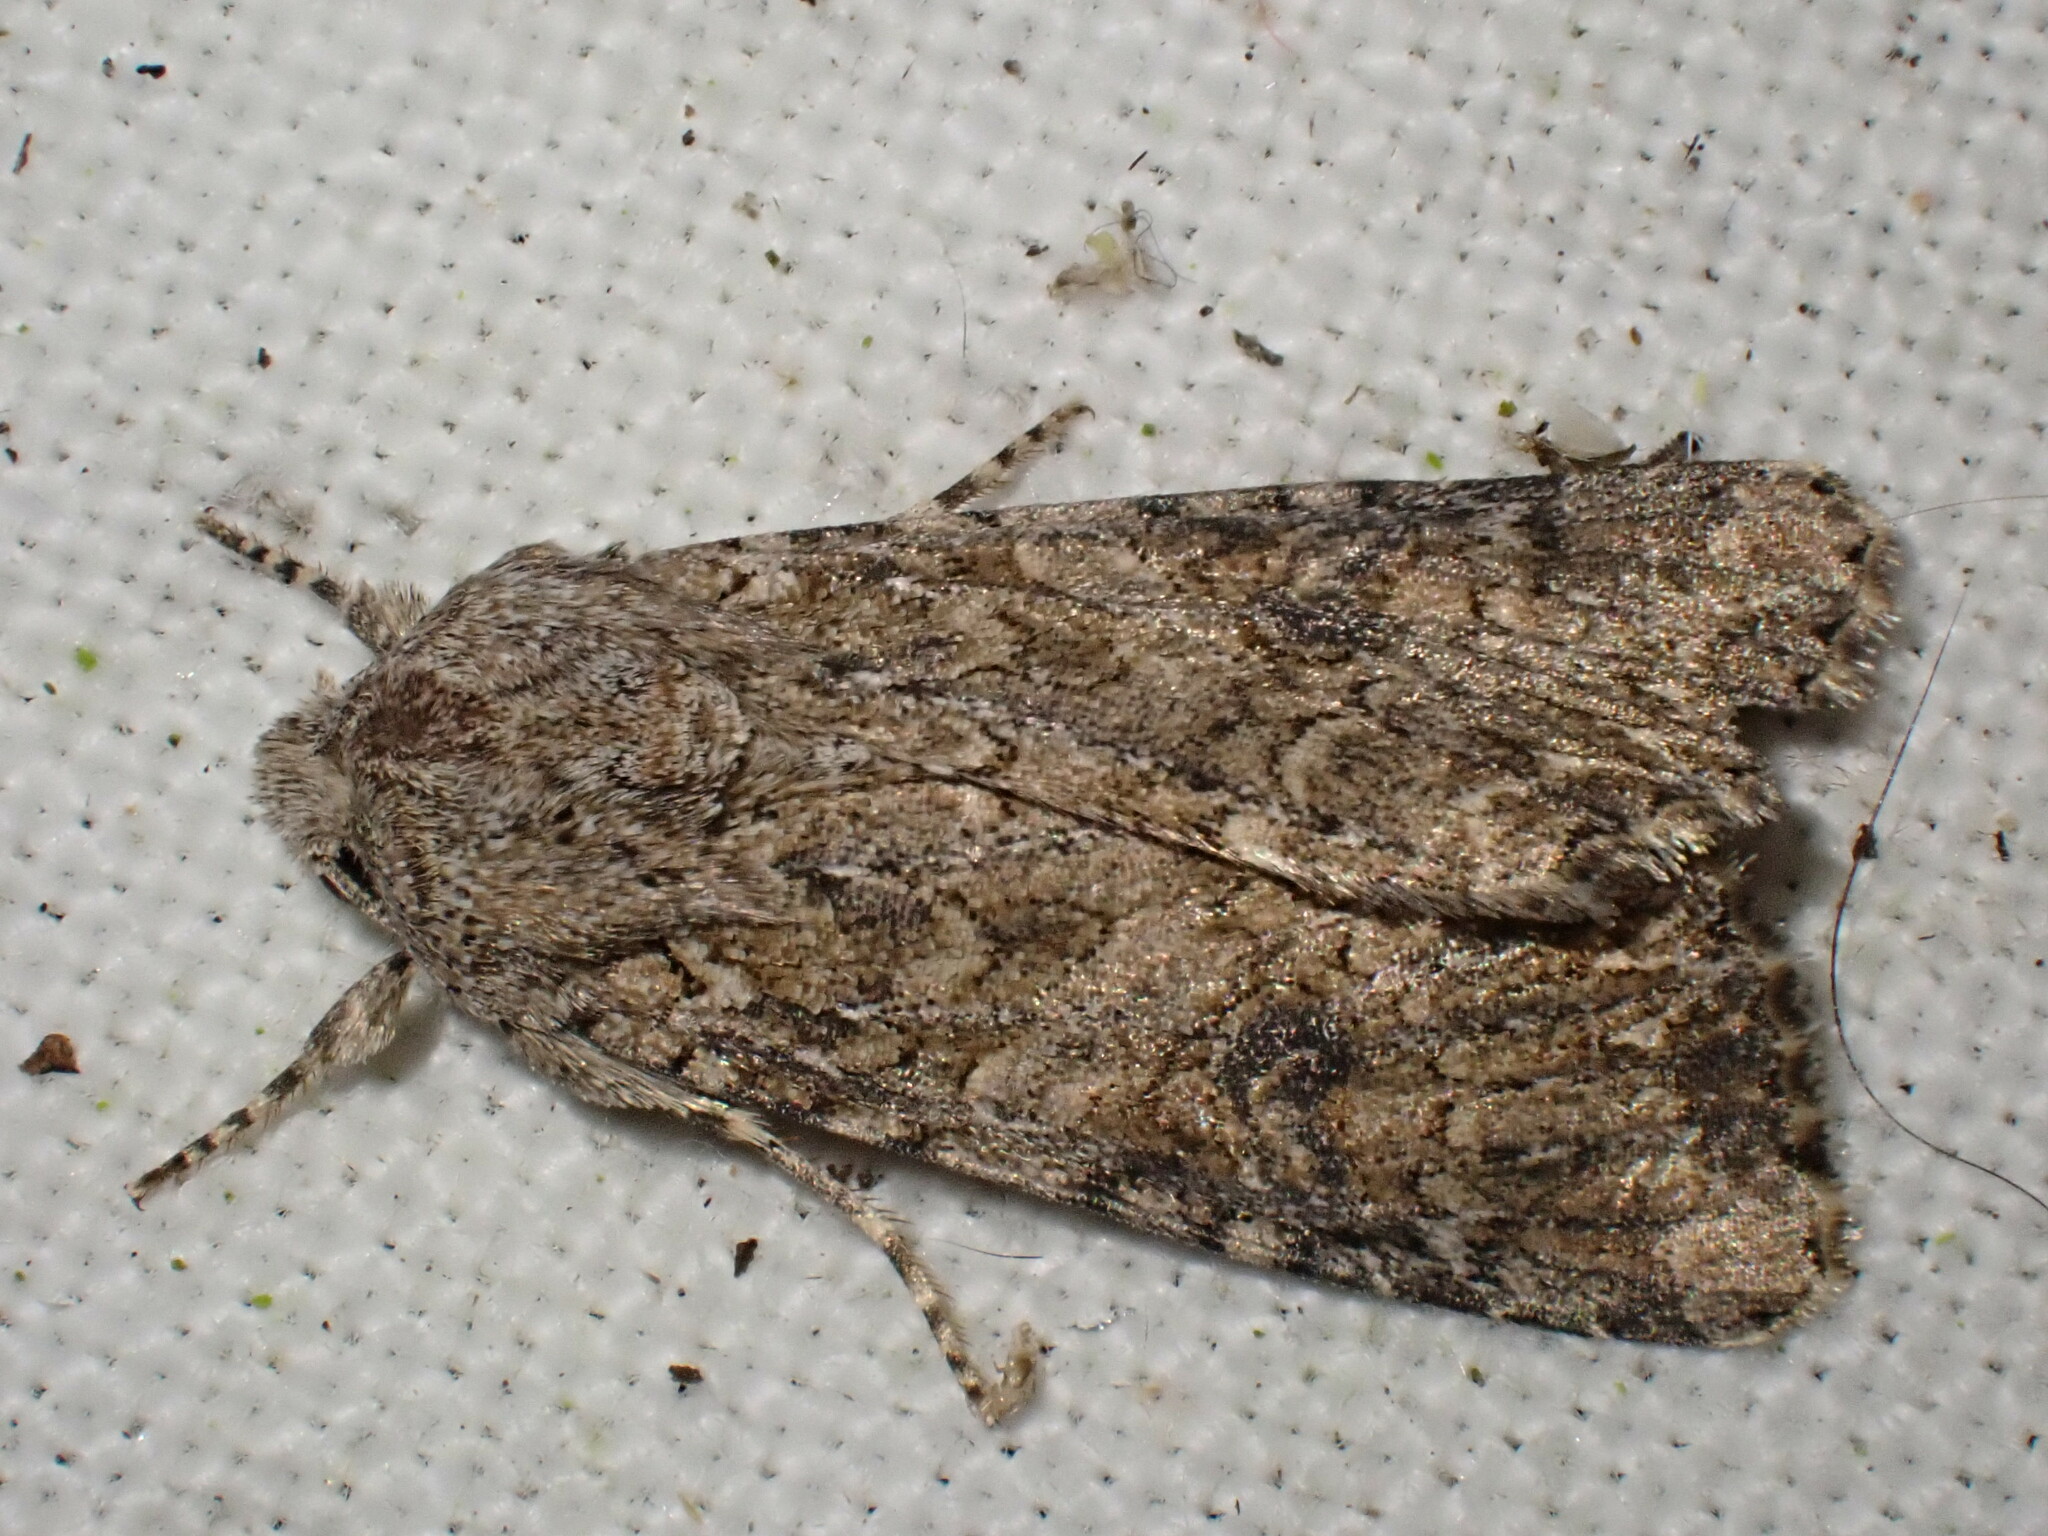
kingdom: Animalia
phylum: Arthropoda
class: Insecta
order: Lepidoptera
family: Noctuidae
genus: Anarta
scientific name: Anarta trifolii
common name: Clover cutworm moth
